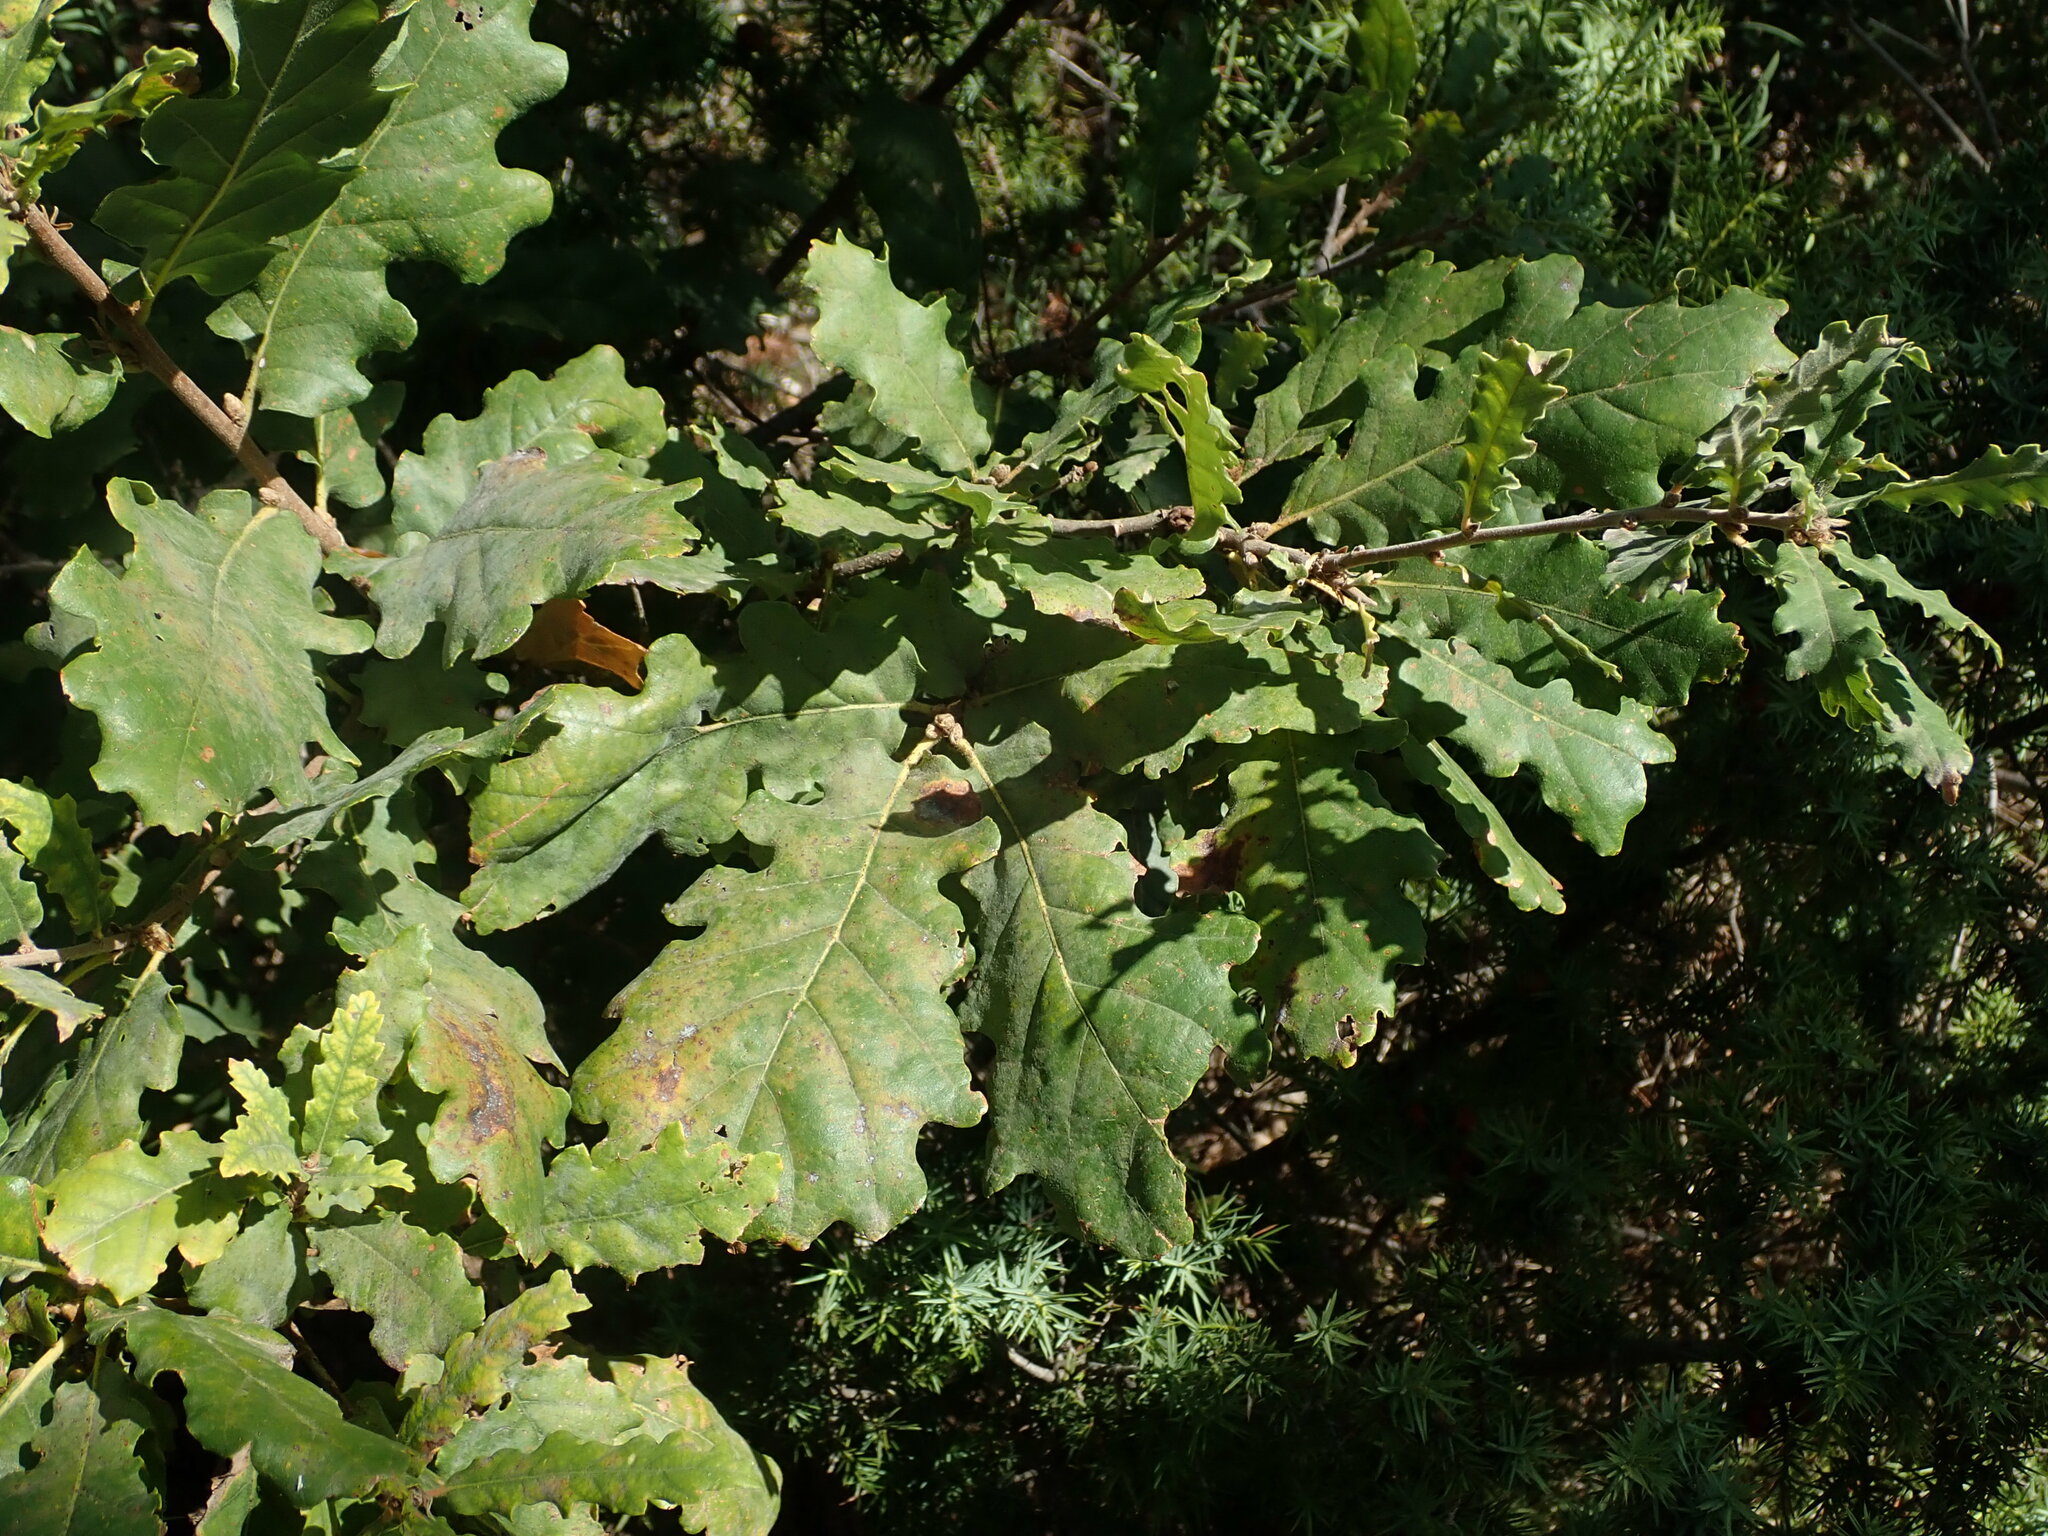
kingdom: Plantae
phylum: Tracheophyta
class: Magnoliopsida
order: Fagales
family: Fagaceae
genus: Quercus
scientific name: Quercus pubescens
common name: Downy oak
